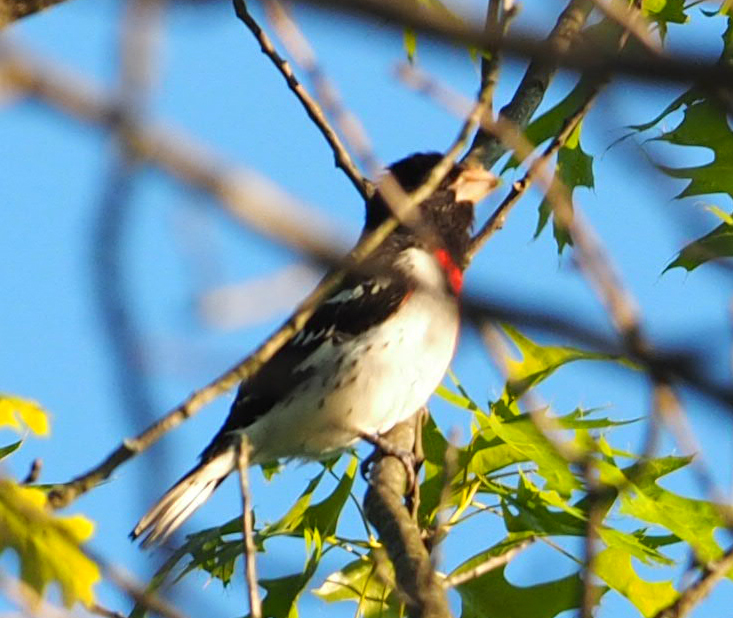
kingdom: Animalia
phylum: Chordata
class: Aves
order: Passeriformes
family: Cardinalidae
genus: Pheucticus
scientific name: Pheucticus ludovicianus
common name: Rose-breasted grosbeak
